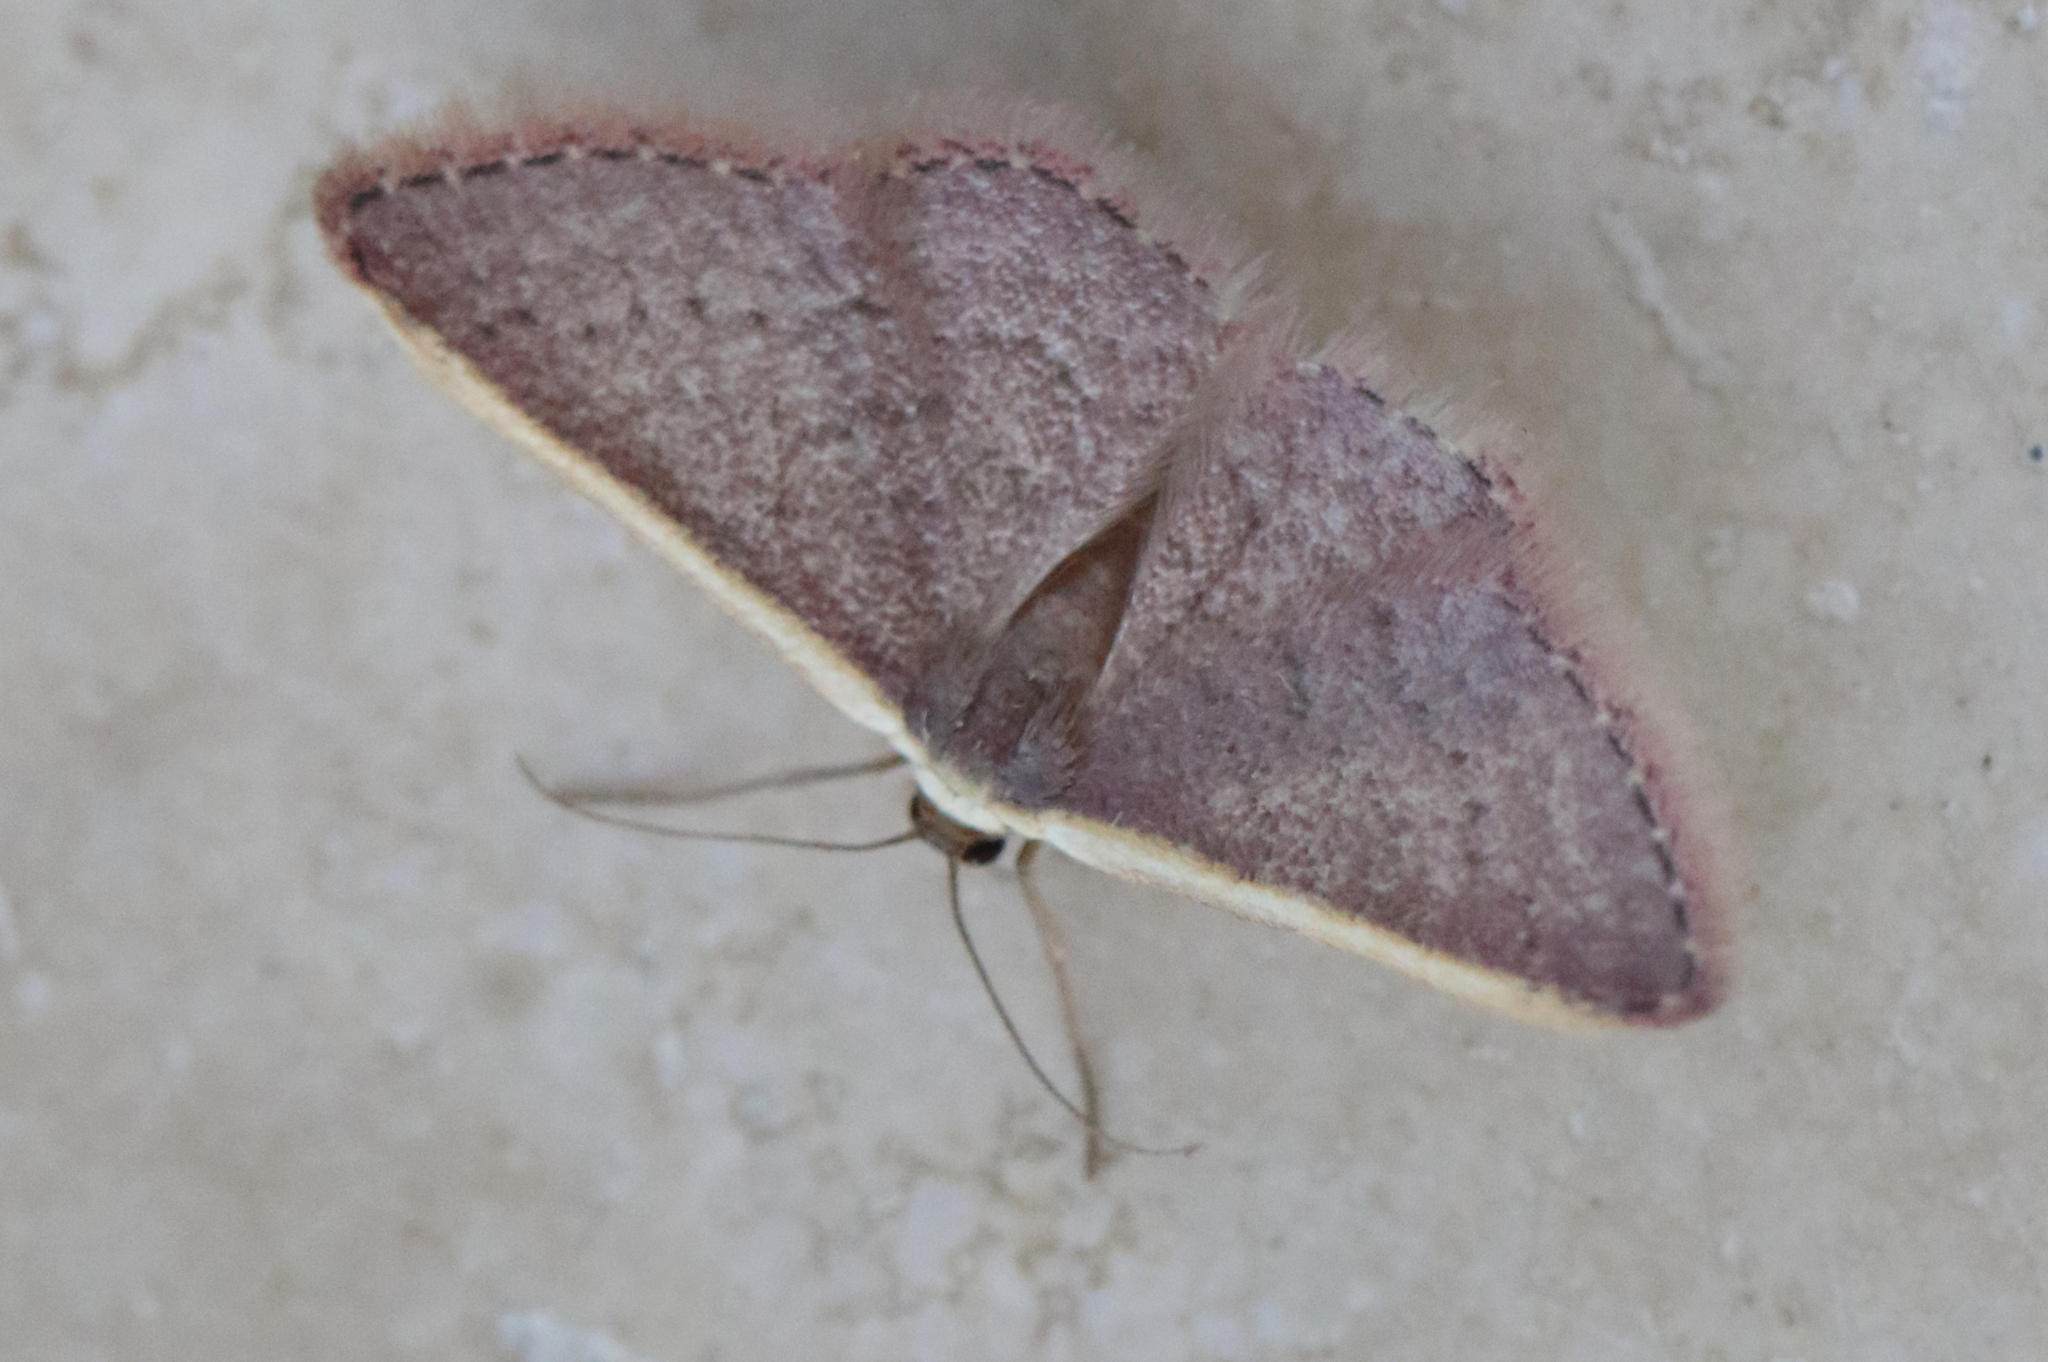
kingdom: Animalia
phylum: Arthropoda
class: Insecta
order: Lepidoptera
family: Geometridae
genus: Idaea
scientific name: Idaea inversata
